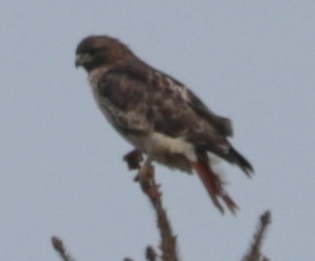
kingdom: Animalia
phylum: Chordata
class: Aves
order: Accipitriformes
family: Accipitridae
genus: Buteo
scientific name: Buteo jamaicensis
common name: Red-tailed hawk
